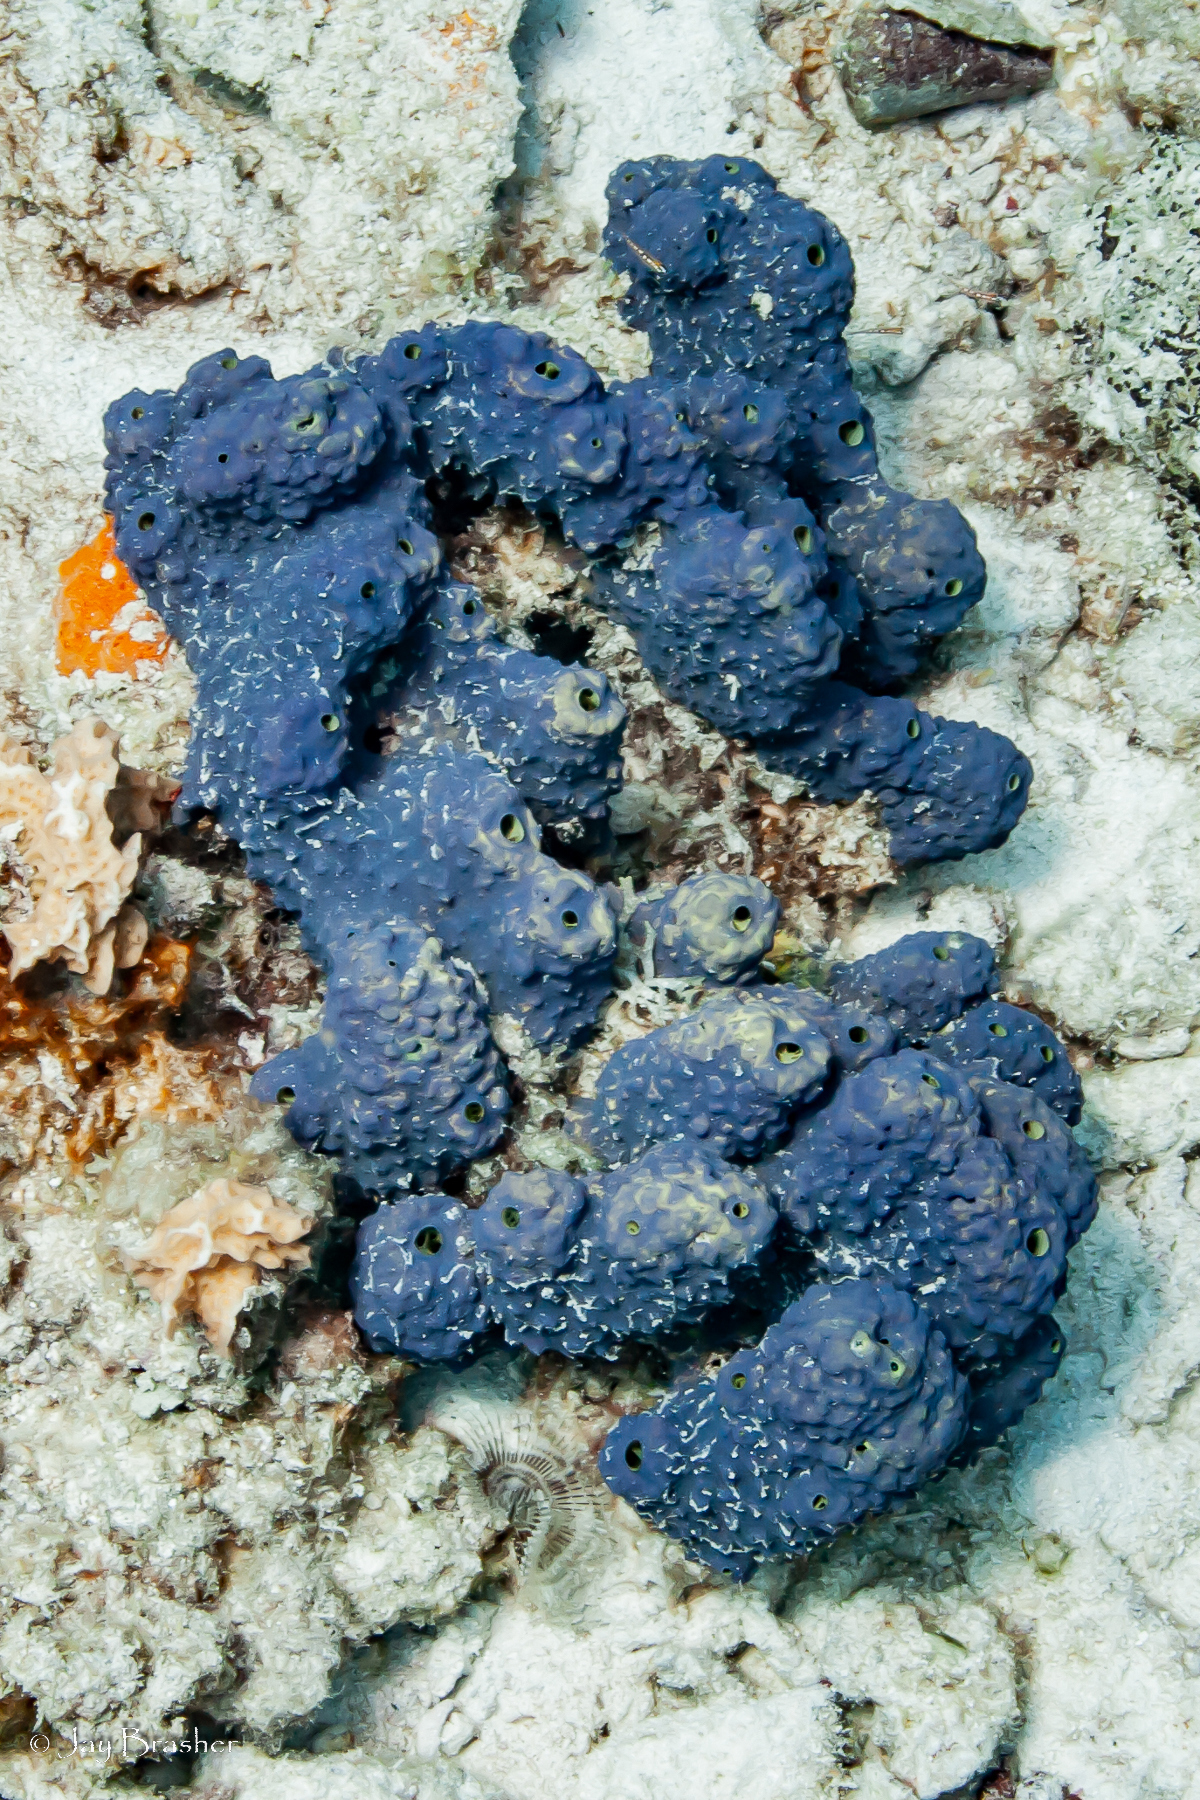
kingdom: Animalia
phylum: Porifera
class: Demospongiae
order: Verongiida
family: Aplysinidae
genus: Aiolochroia
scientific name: Aiolochroia crassa
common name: Branching tube sponge
